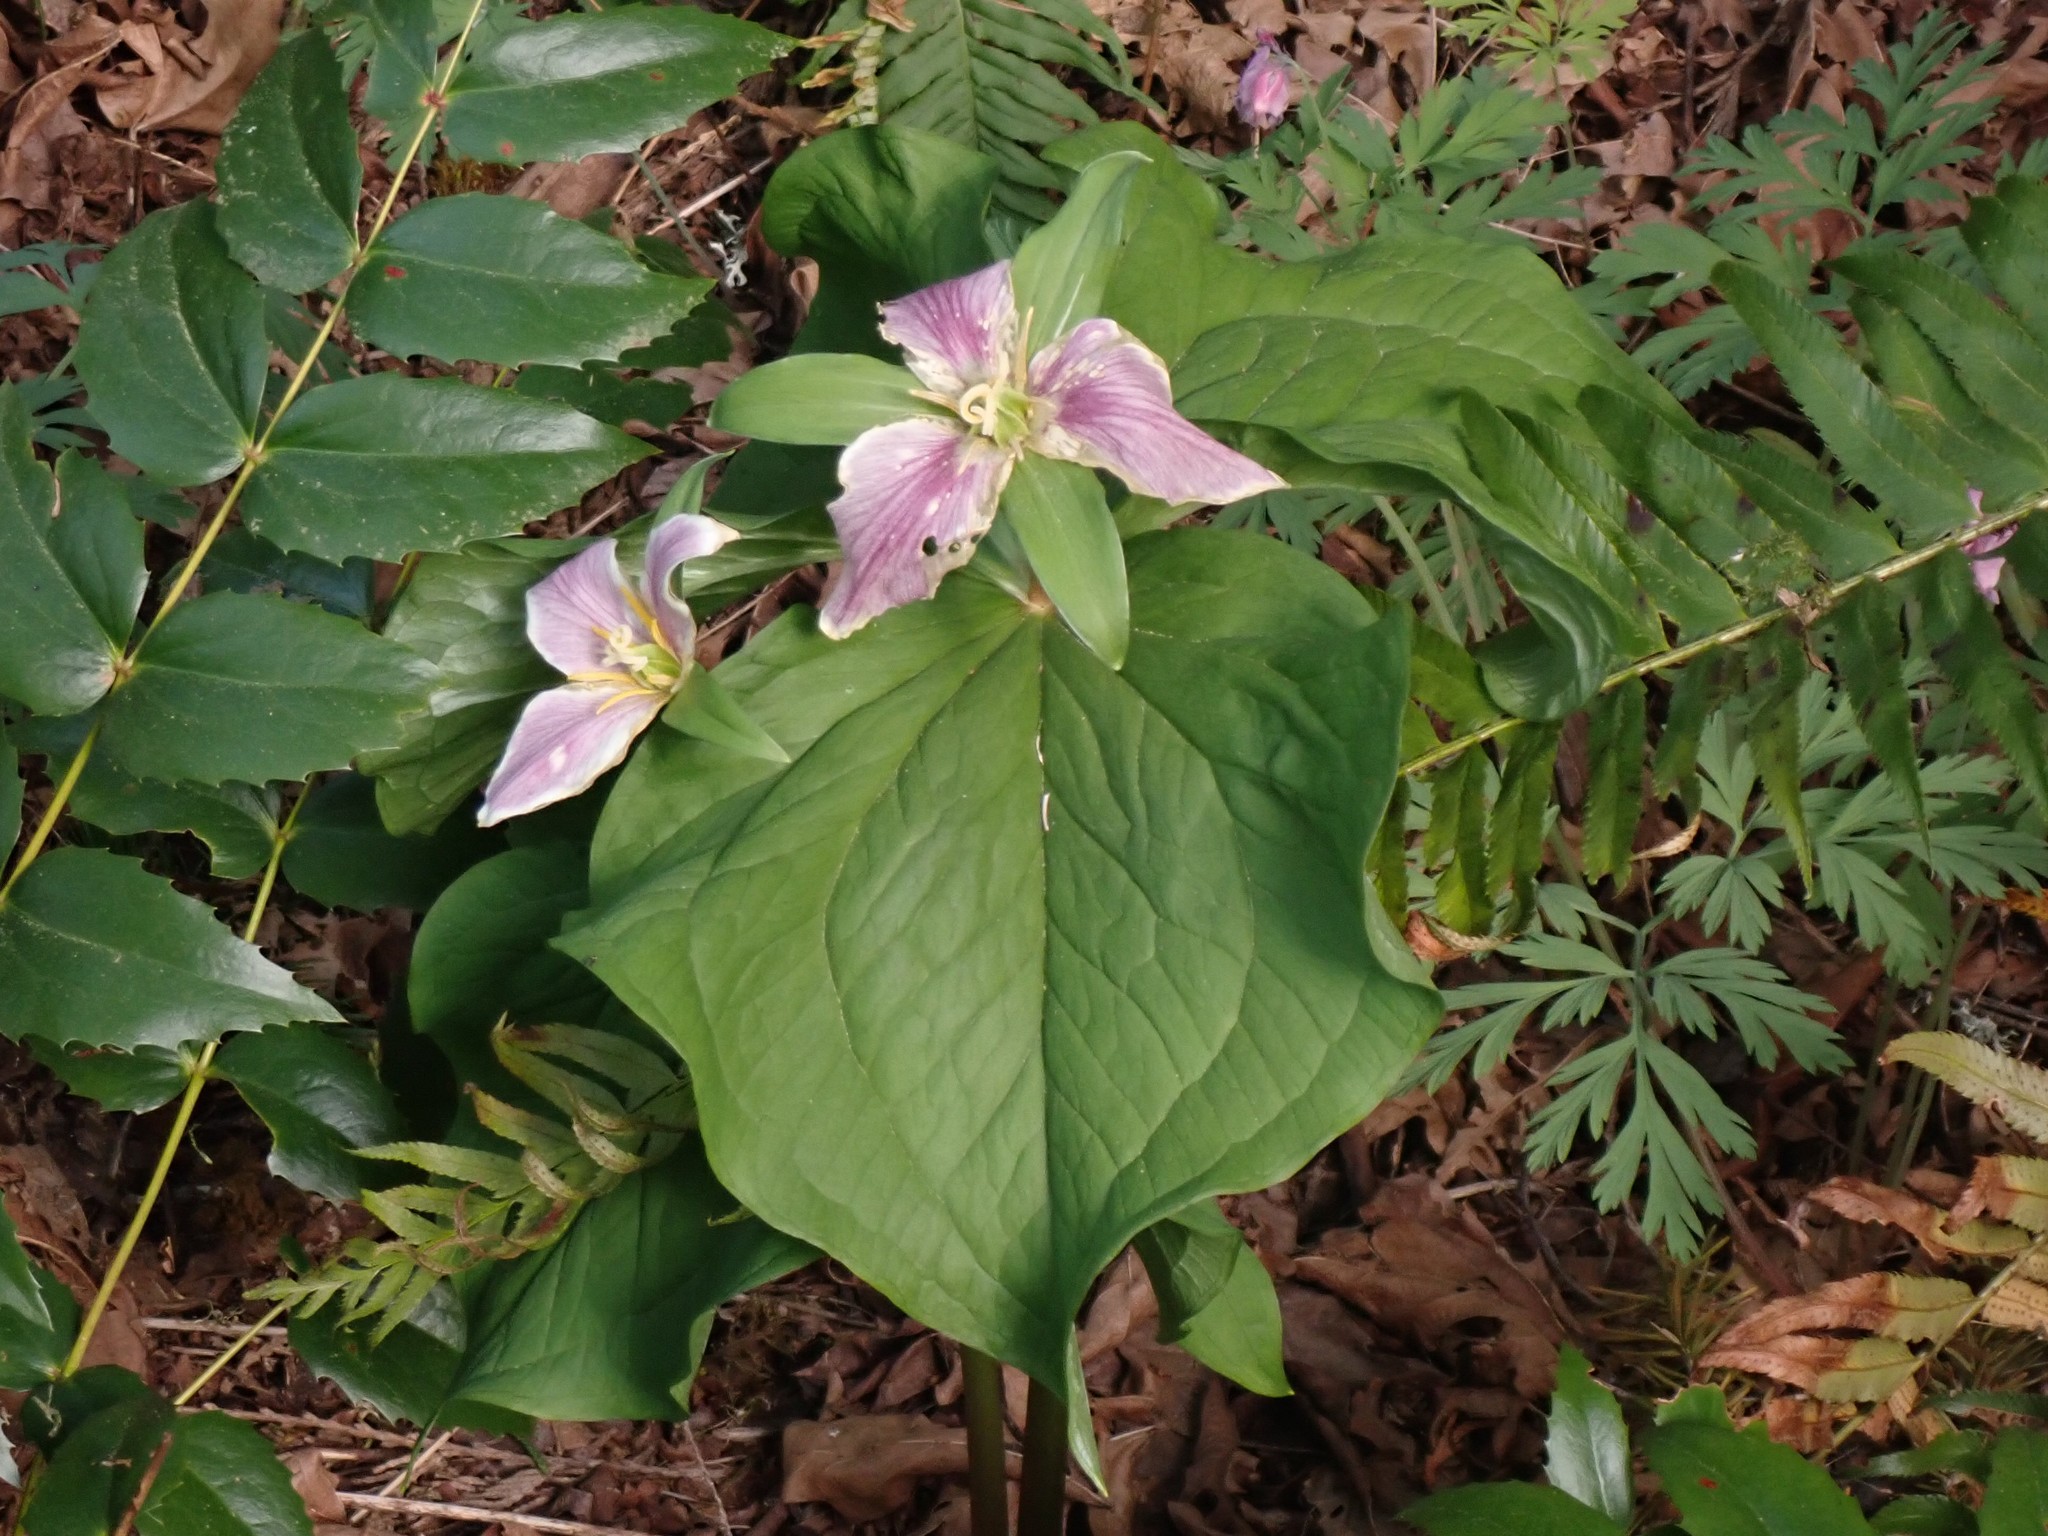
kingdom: Plantae
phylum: Tracheophyta
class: Liliopsida
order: Liliales
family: Melanthiaceae
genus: Trillium
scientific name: Trillium ovatum
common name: Pacific trillium
